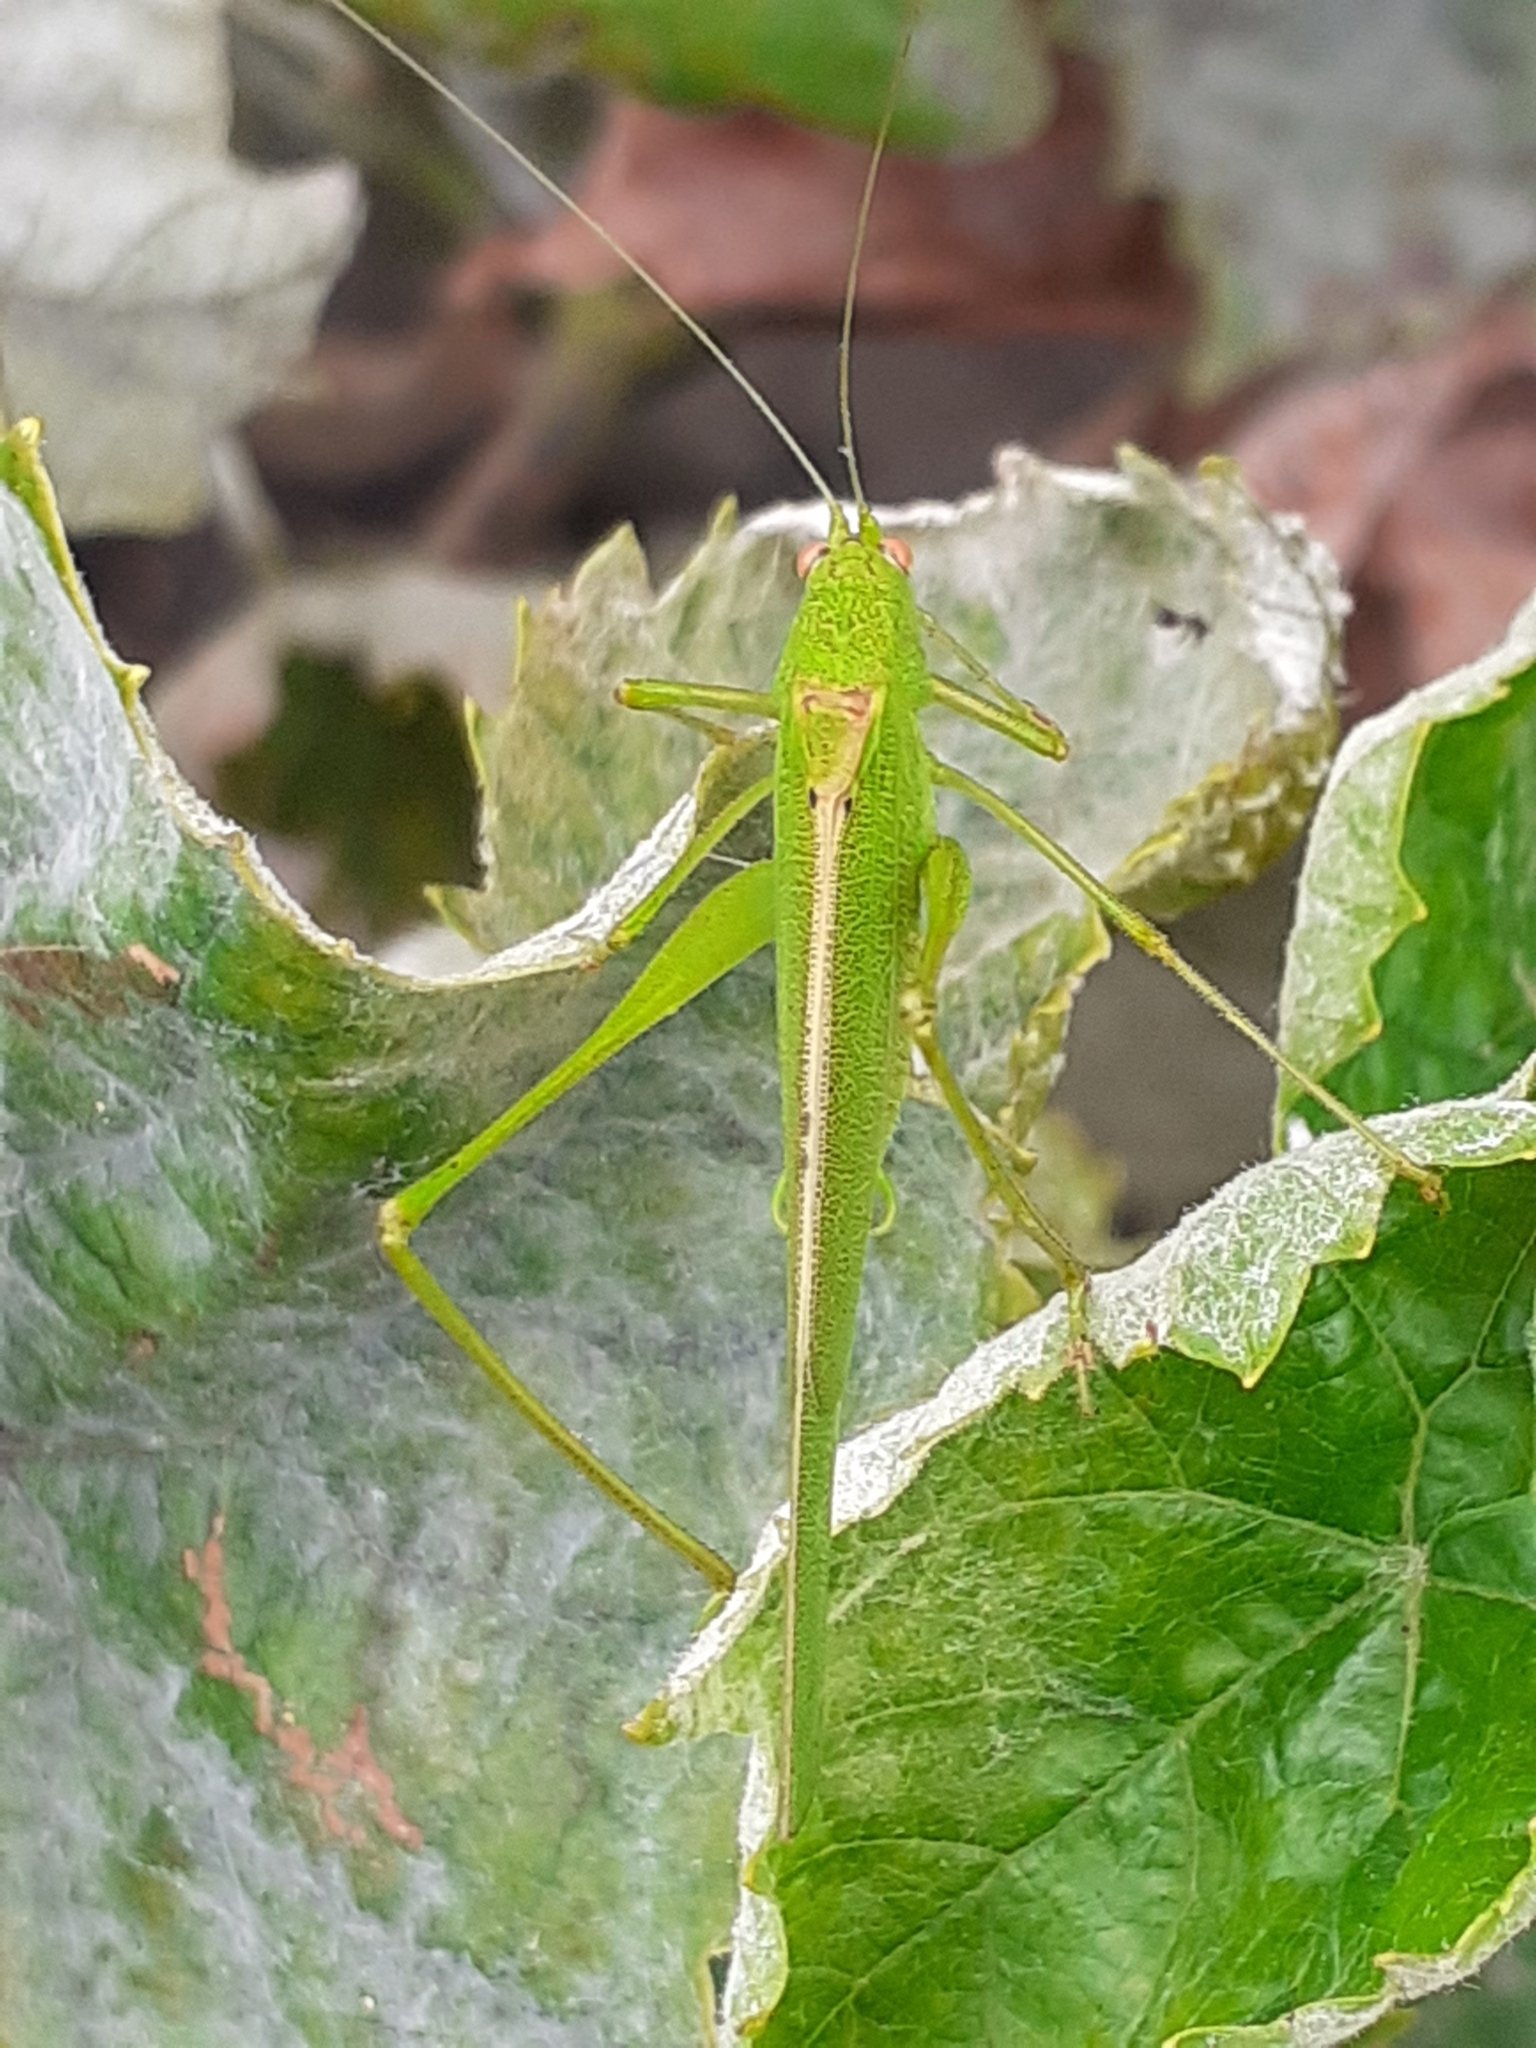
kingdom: Animalia
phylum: Arthropoda
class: Insecta
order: Orthoptera
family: Tettigoniidae
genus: Phaneroptera
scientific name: Phaneroptera sparsa
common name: Sickle-bearing leaf katydid
